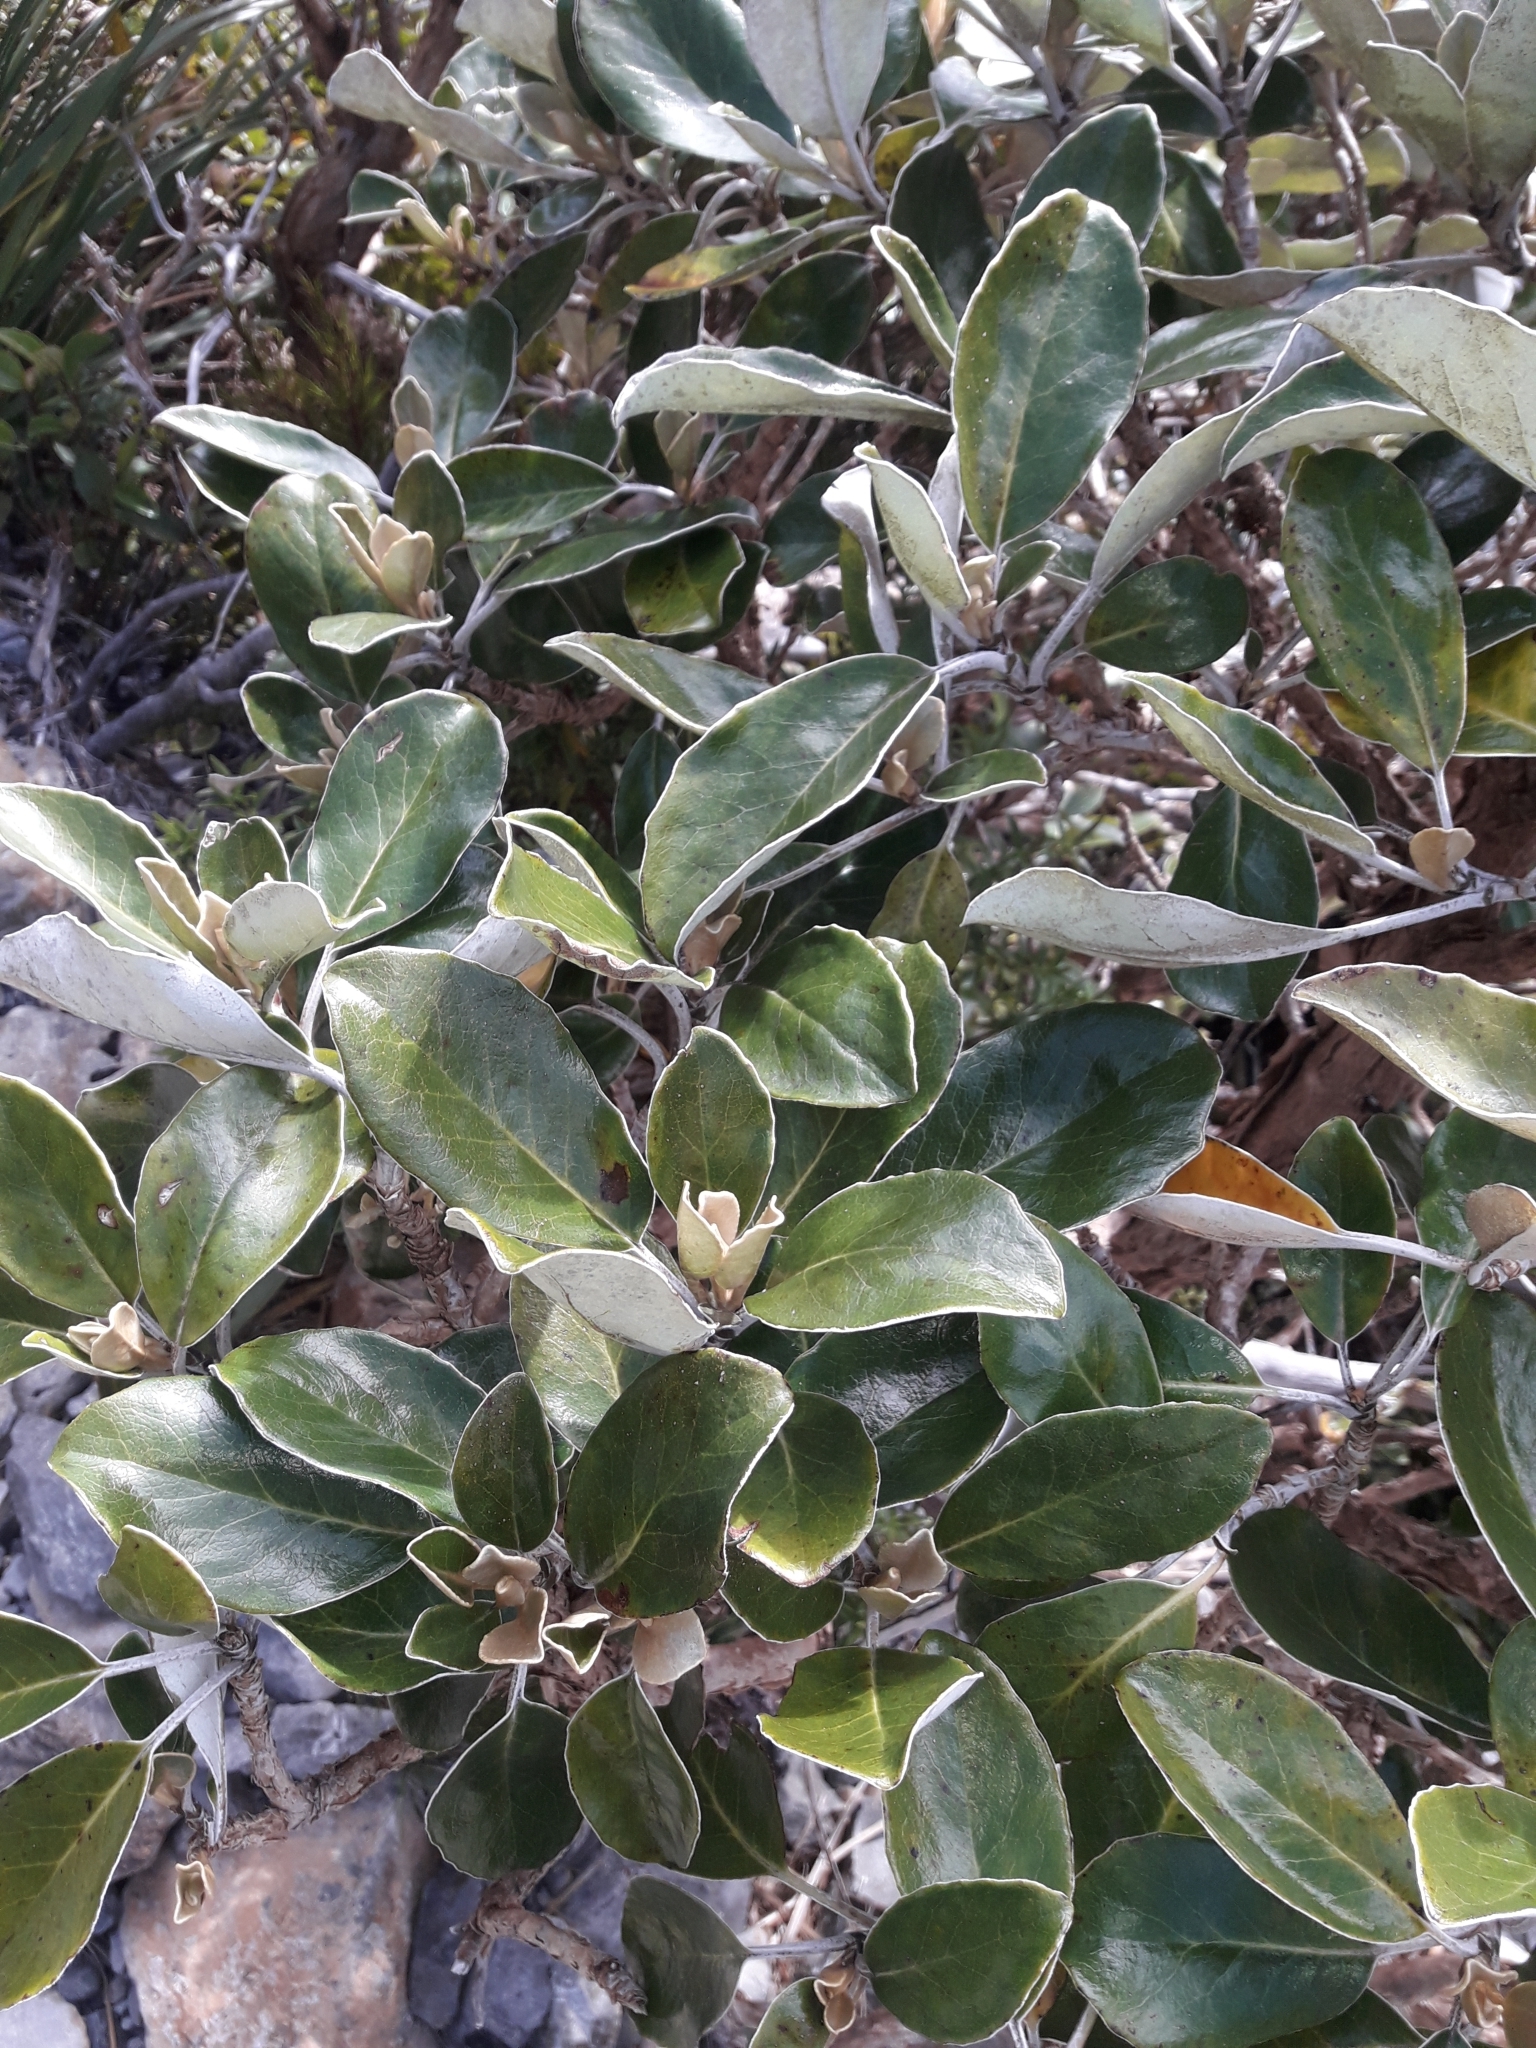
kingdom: Plantae
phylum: Tracheophyta
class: Magnoliopsida
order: Asterales
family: Asteraceae
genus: Brachyglottis
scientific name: Brachyglottis elaeagnifolia
